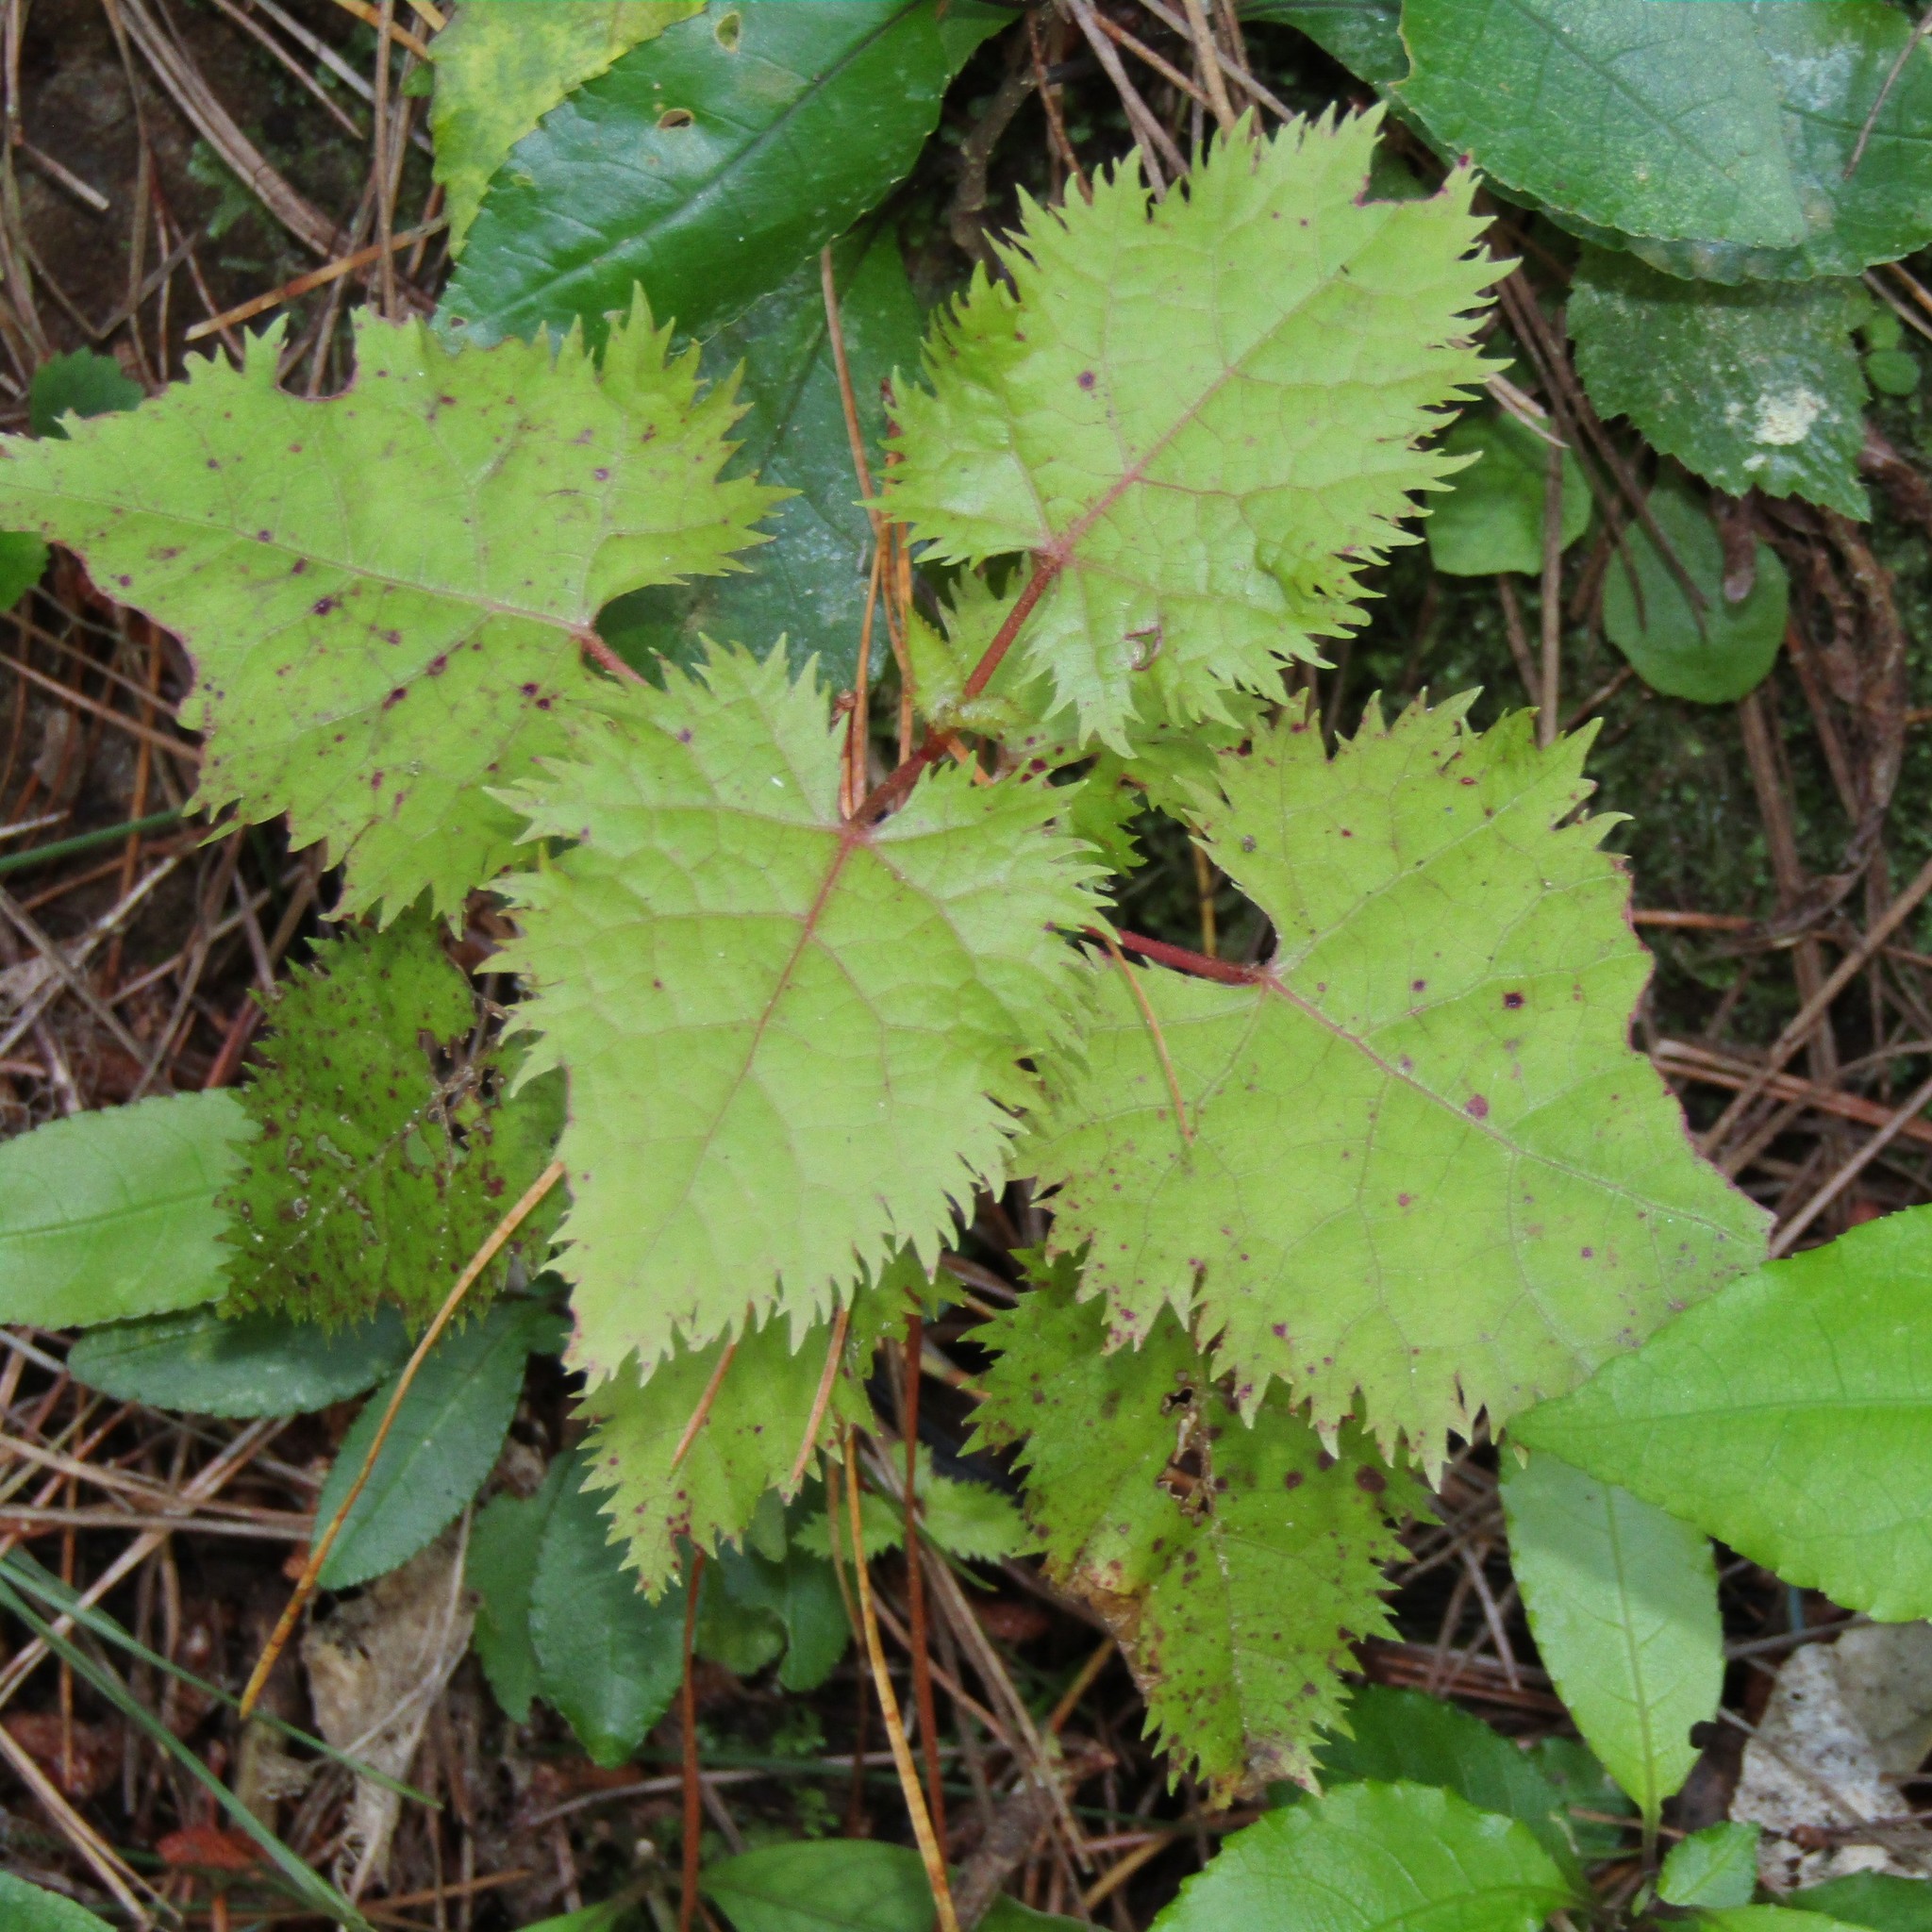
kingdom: Plantae
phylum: Tracheophyta
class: Magnoliopsida
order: Oxalidales
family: Elaeocarpaceae
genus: Aristotelia
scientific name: Aristotelia serrata
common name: New zealand wineberry
